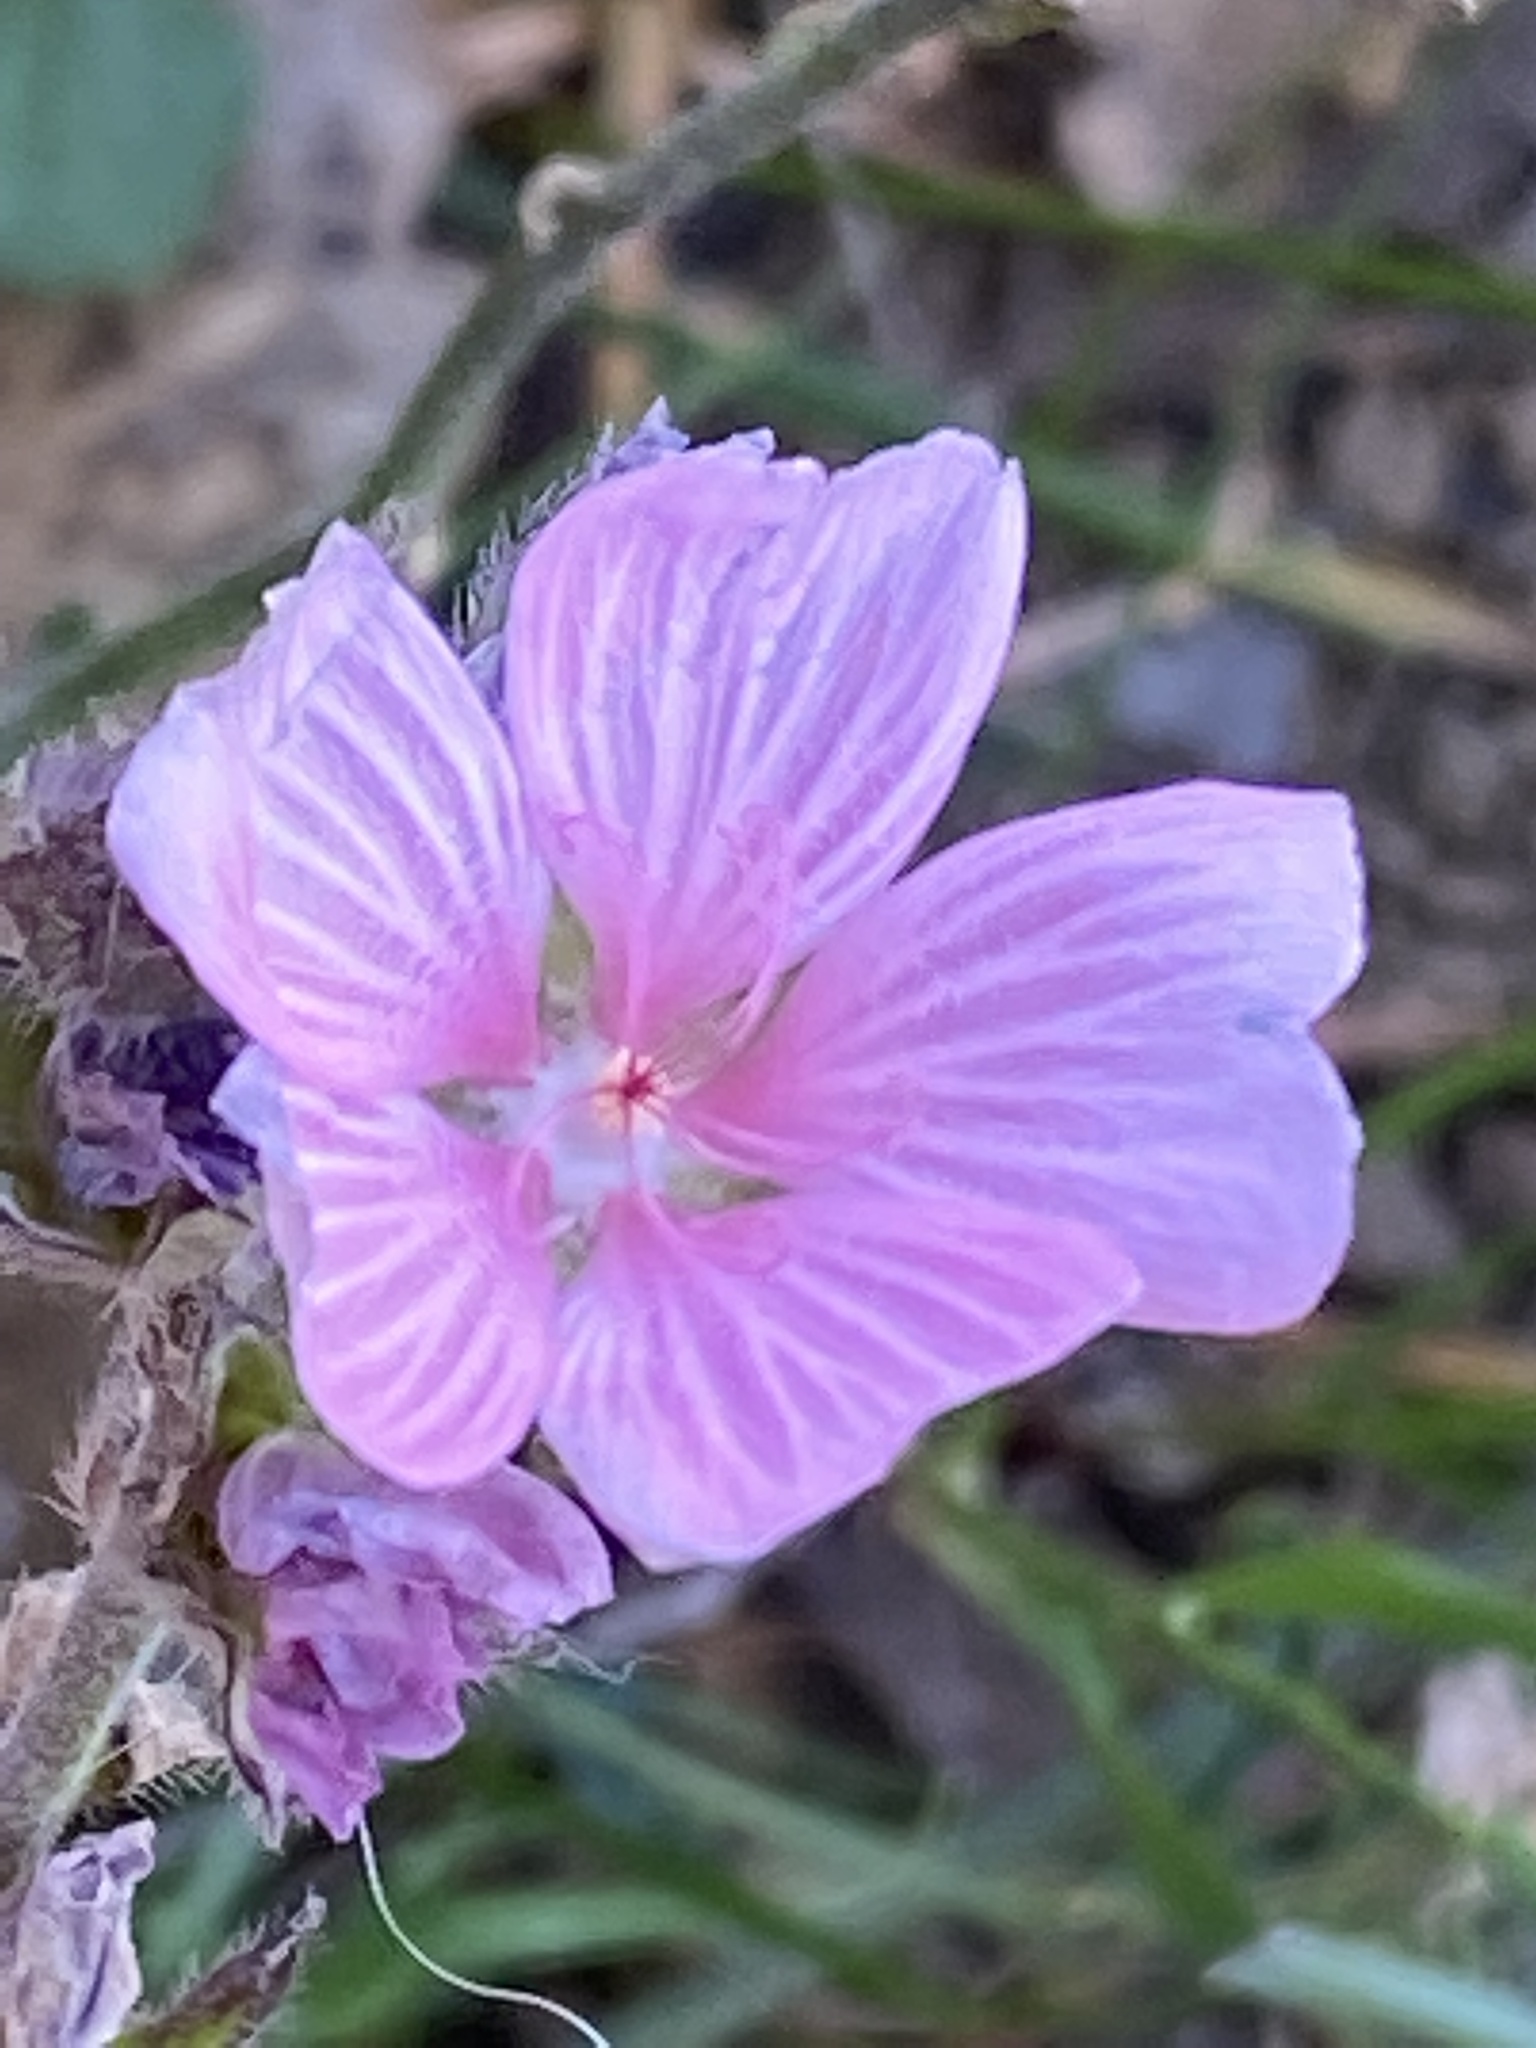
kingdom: Plantae
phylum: Tracheophyta
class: Magnoliopsida
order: Malvales
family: Malvaceae
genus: Sidalcea
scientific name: Sidalcea malviflora
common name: Greek mallow
